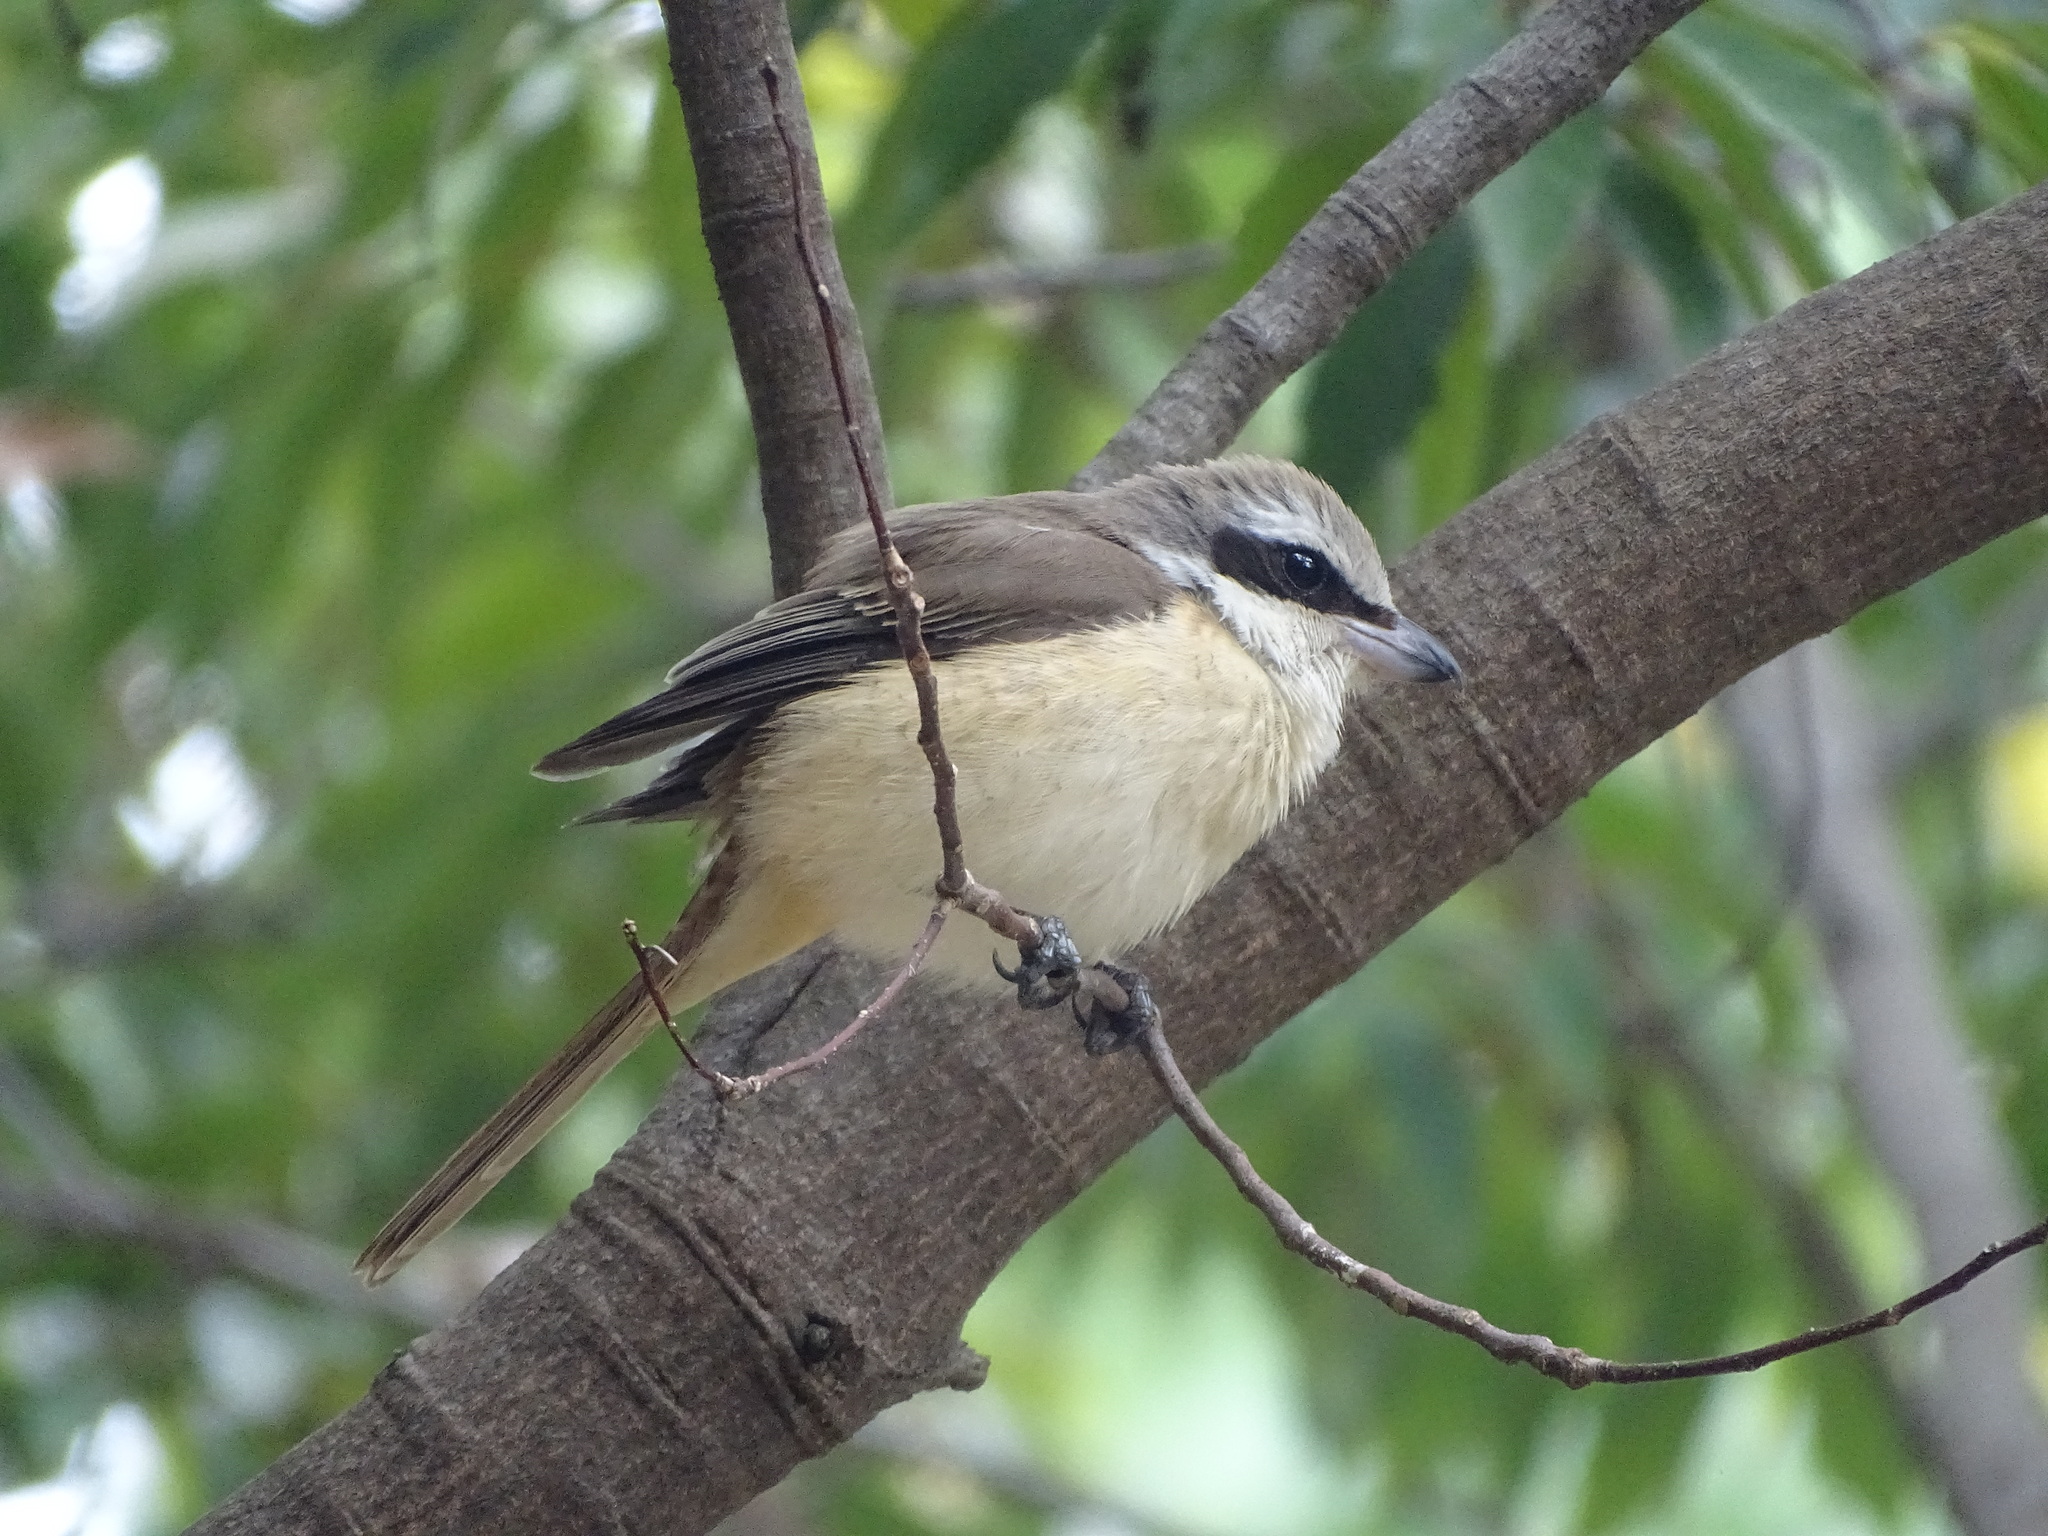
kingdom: Animalia
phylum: Chordata
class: Aves
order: Passeriformes
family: Laniidae
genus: Lanius
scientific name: Lanius cristatus
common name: Brown shrike
